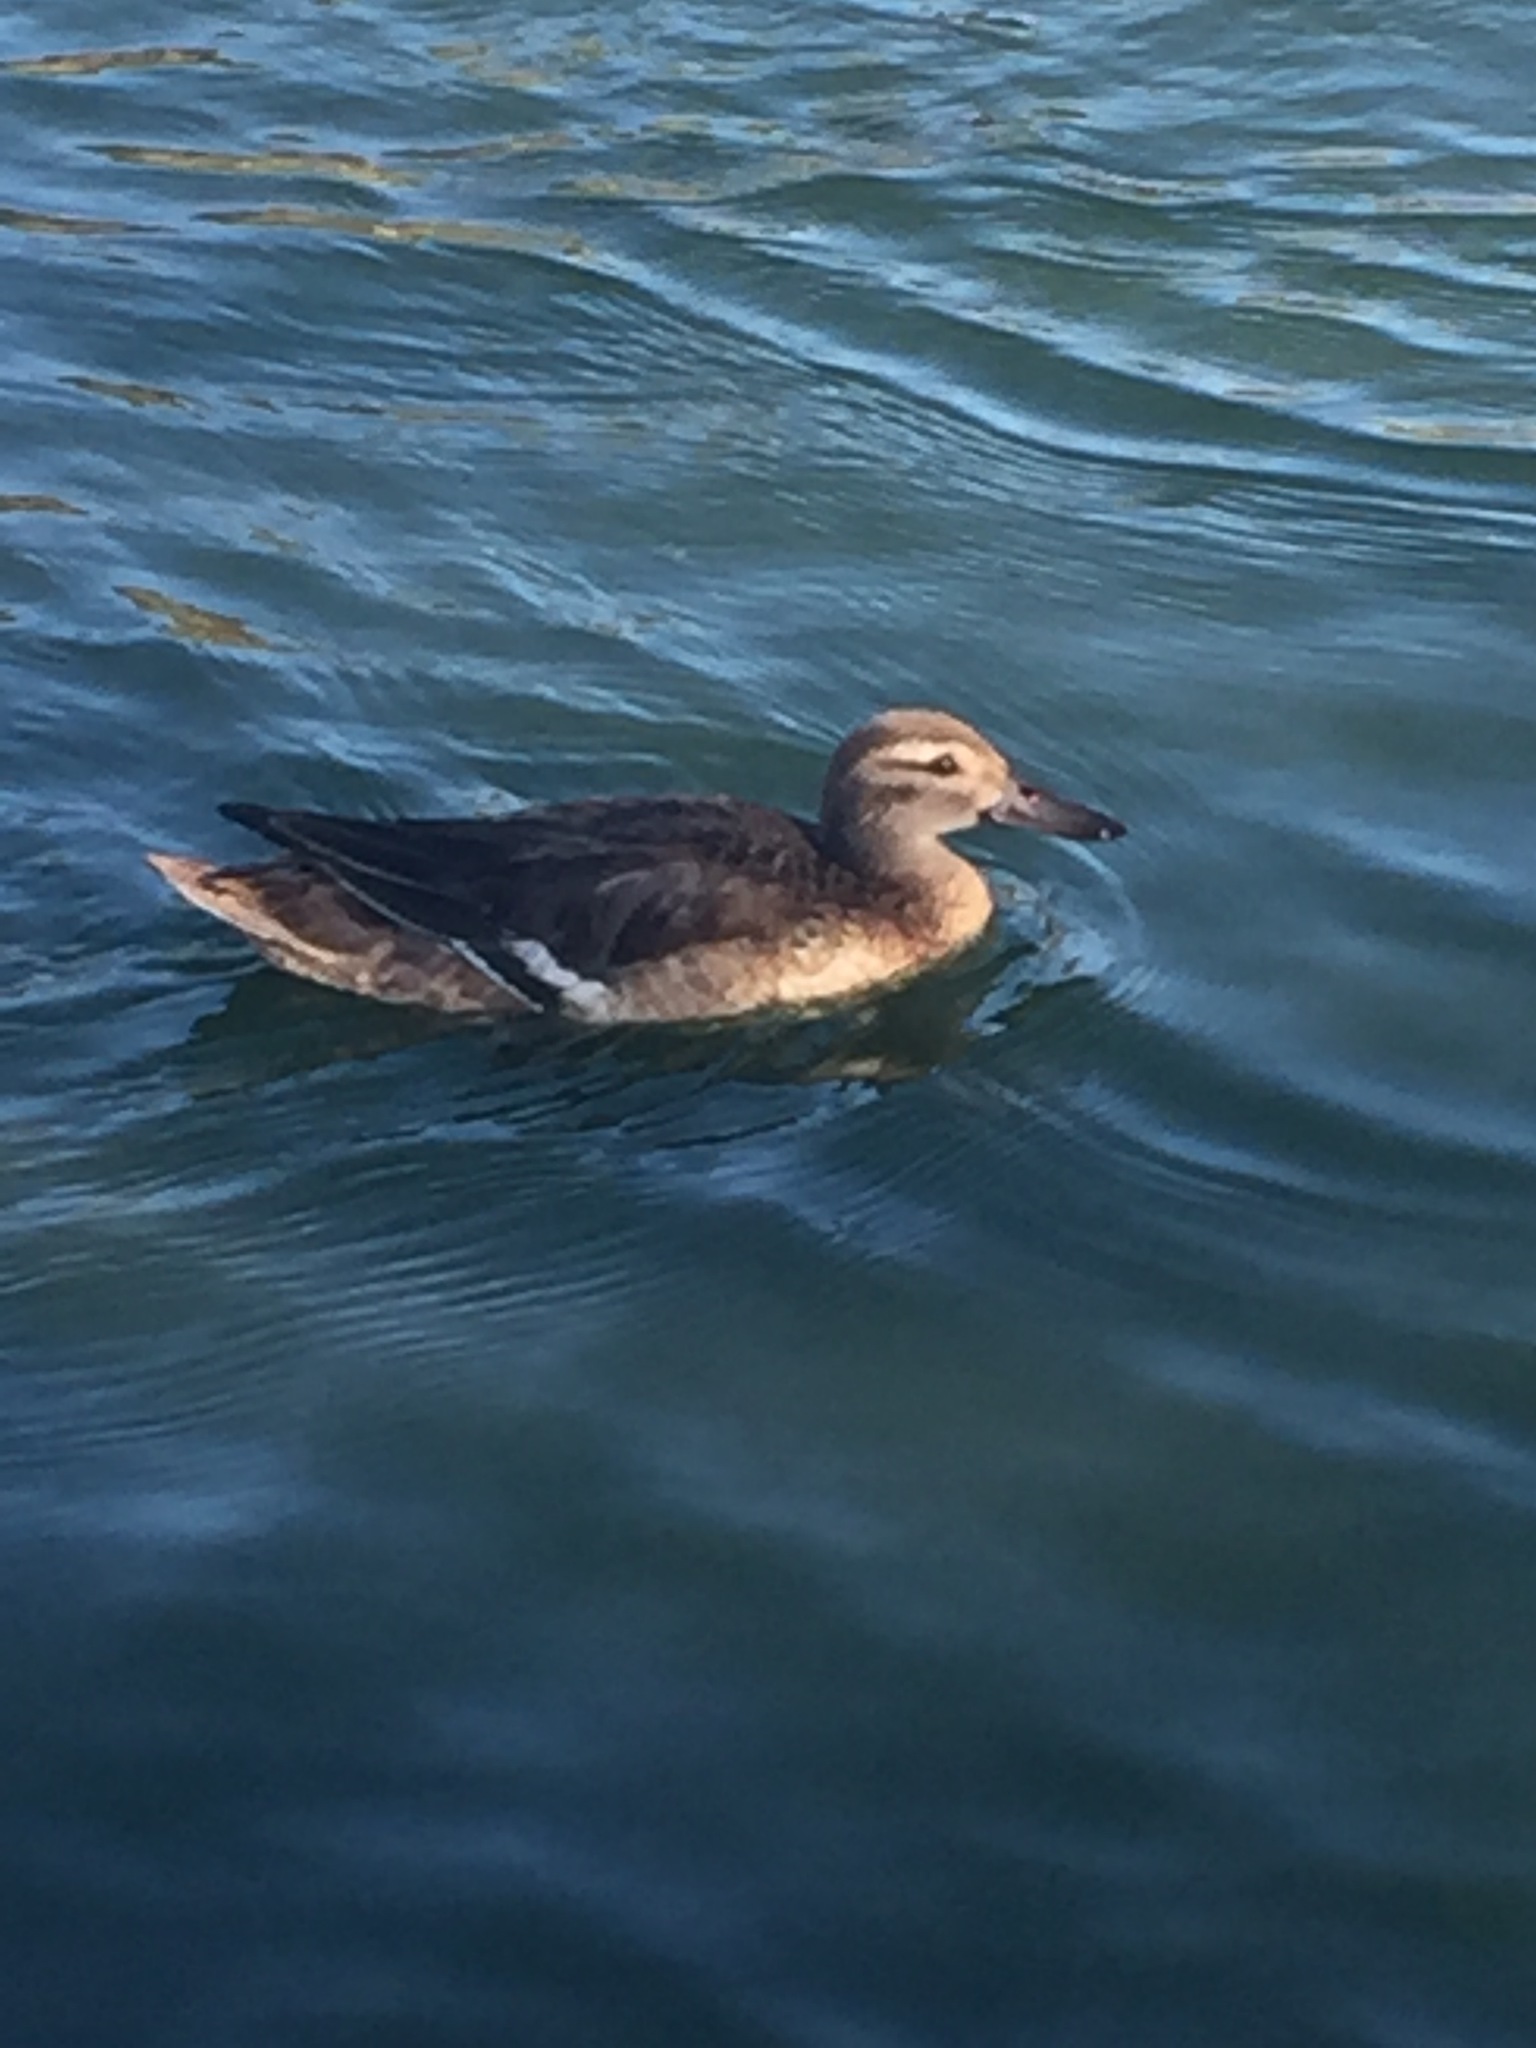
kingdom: Animalia
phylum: Chordata
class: Aves
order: Anseriformes
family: Anatidae
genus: Spatula
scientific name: Spatula querquedula
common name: Garganey
